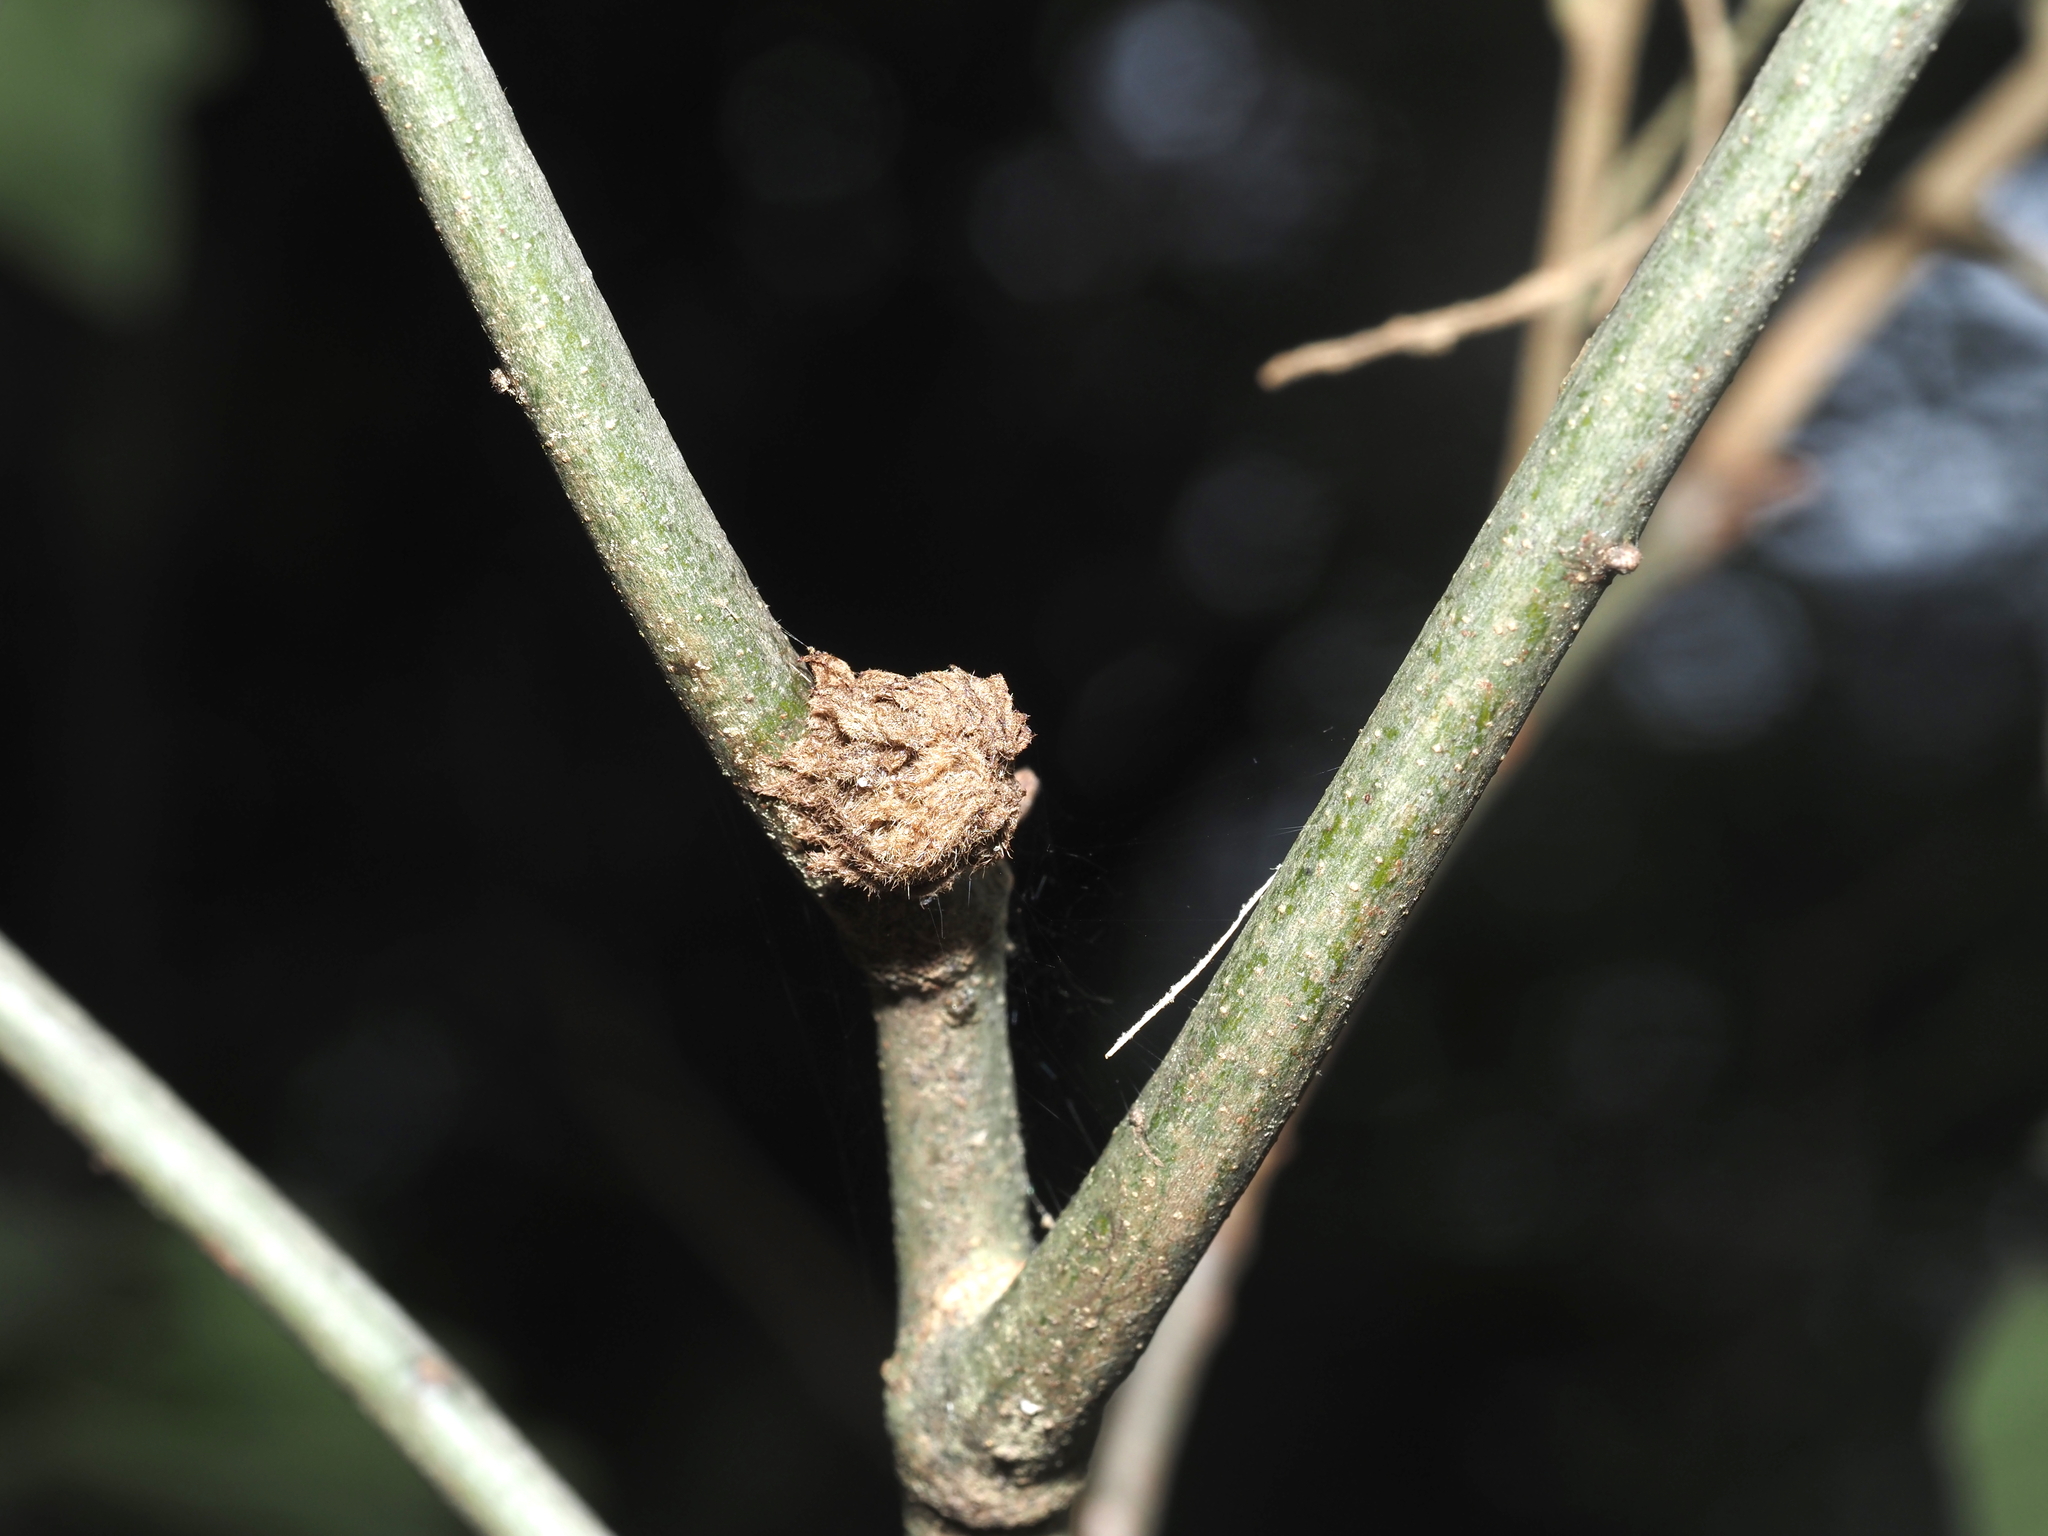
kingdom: Animalia
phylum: Arthropoda
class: Insecta
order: Hymenoptera
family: Cynipidae
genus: Dryocosmus
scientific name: Dryocosmus
